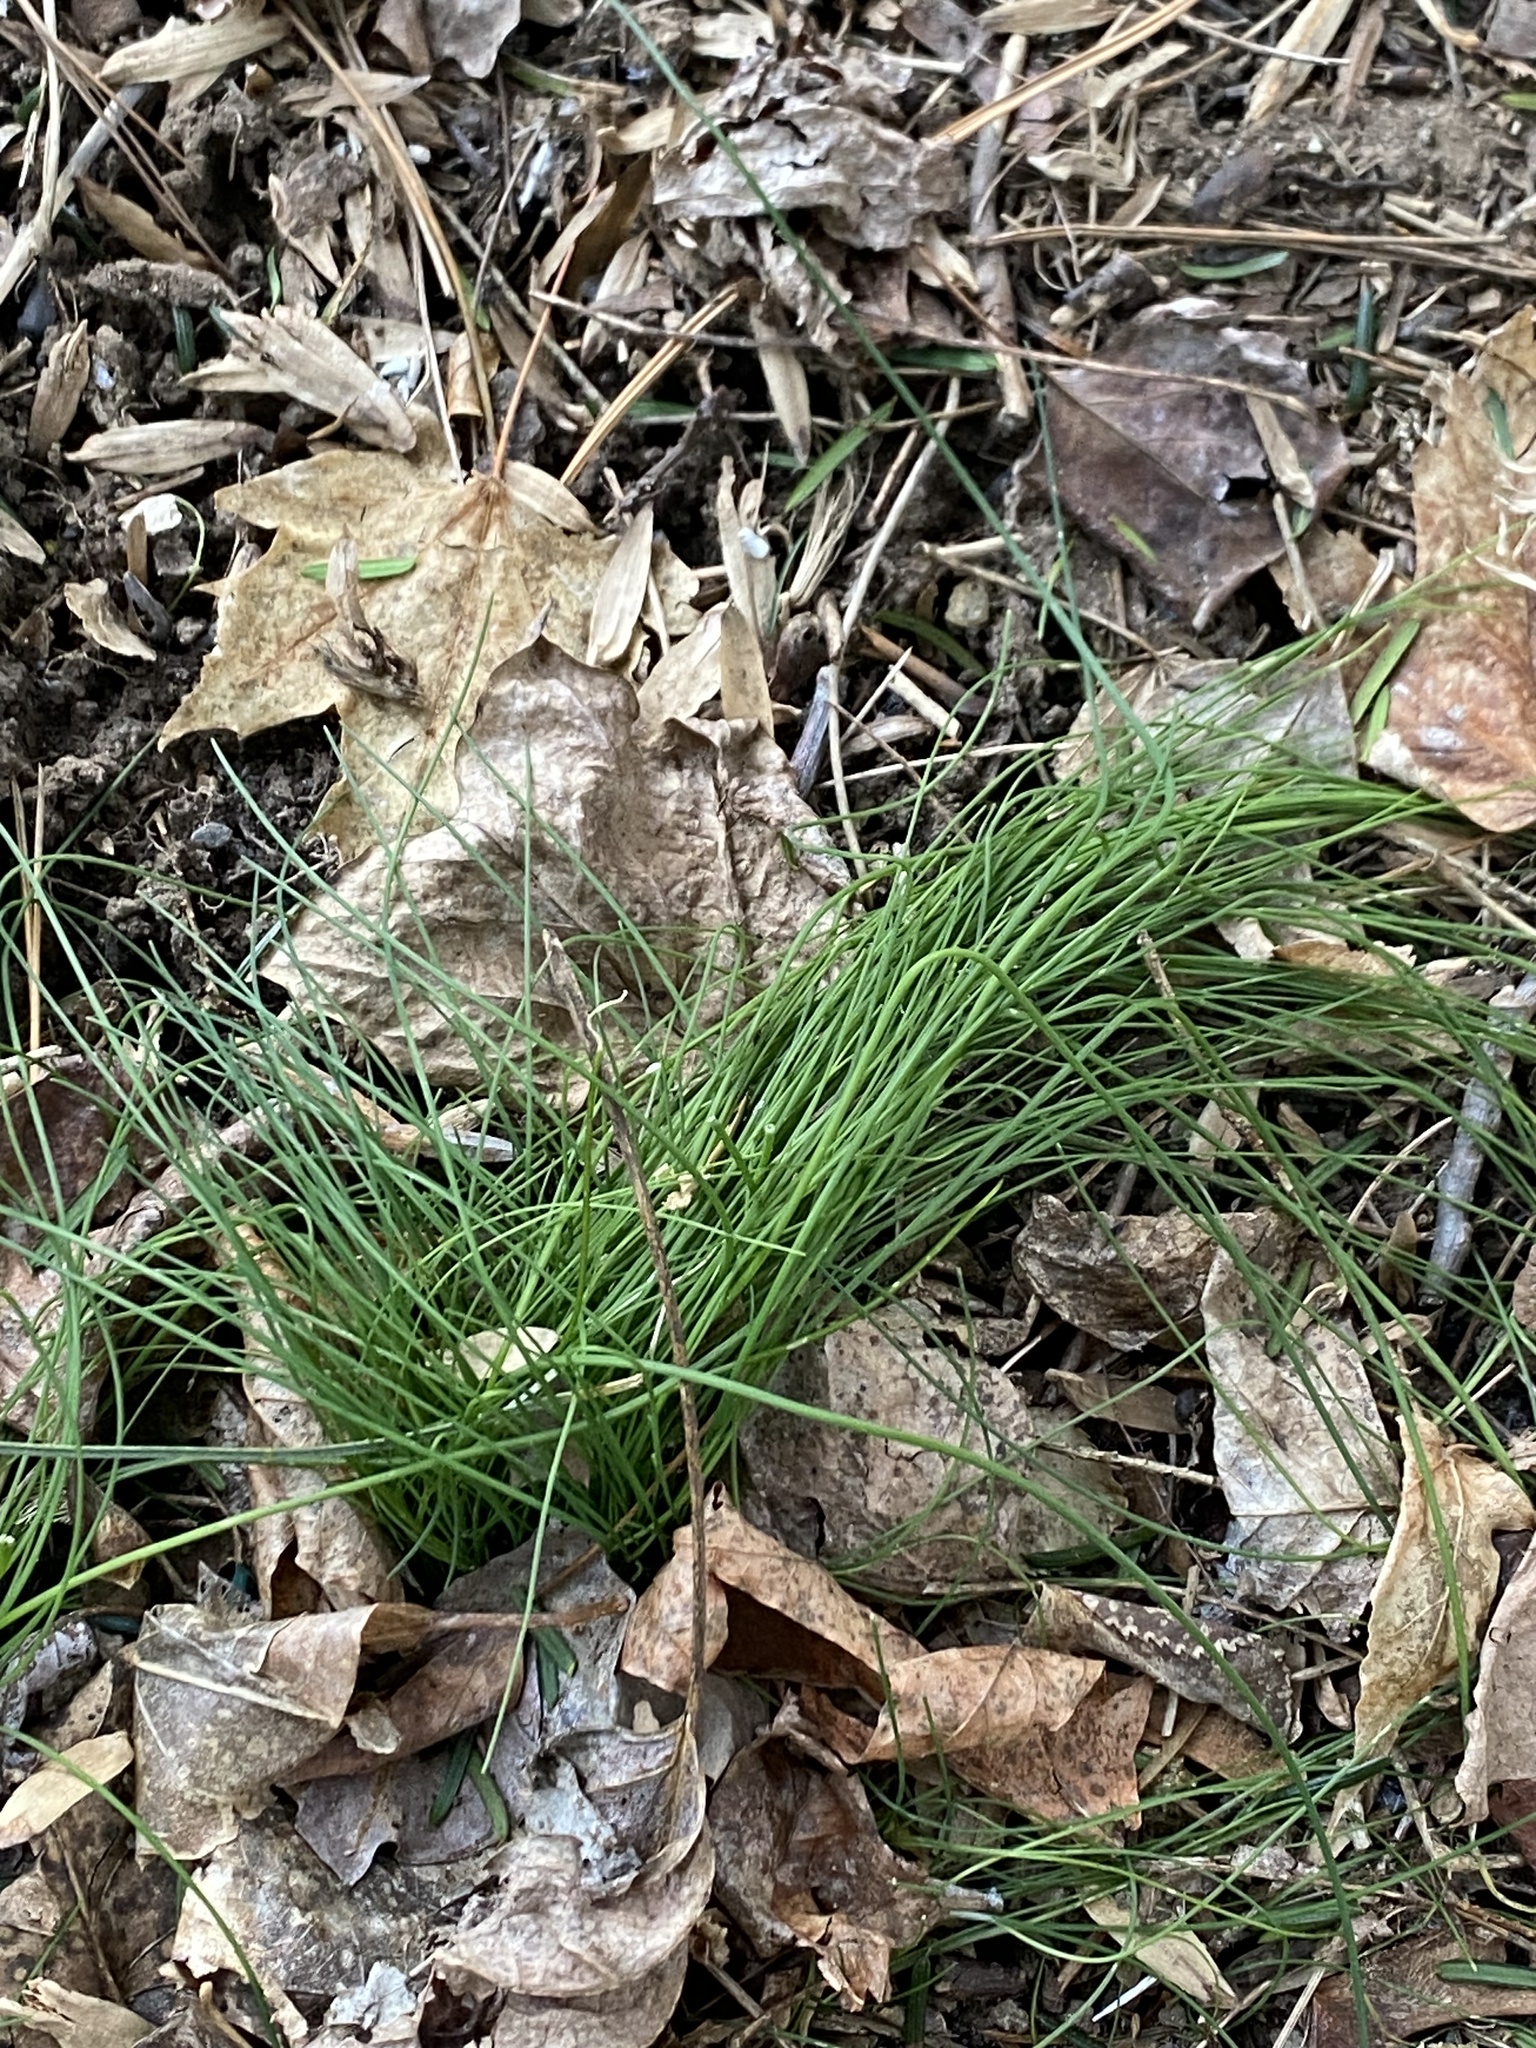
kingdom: Plantae
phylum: Tracheophyta
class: Liliopsida
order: Asparagales
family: Amaryllidaceae
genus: Allium
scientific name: Allium vineale
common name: Crow garlic
